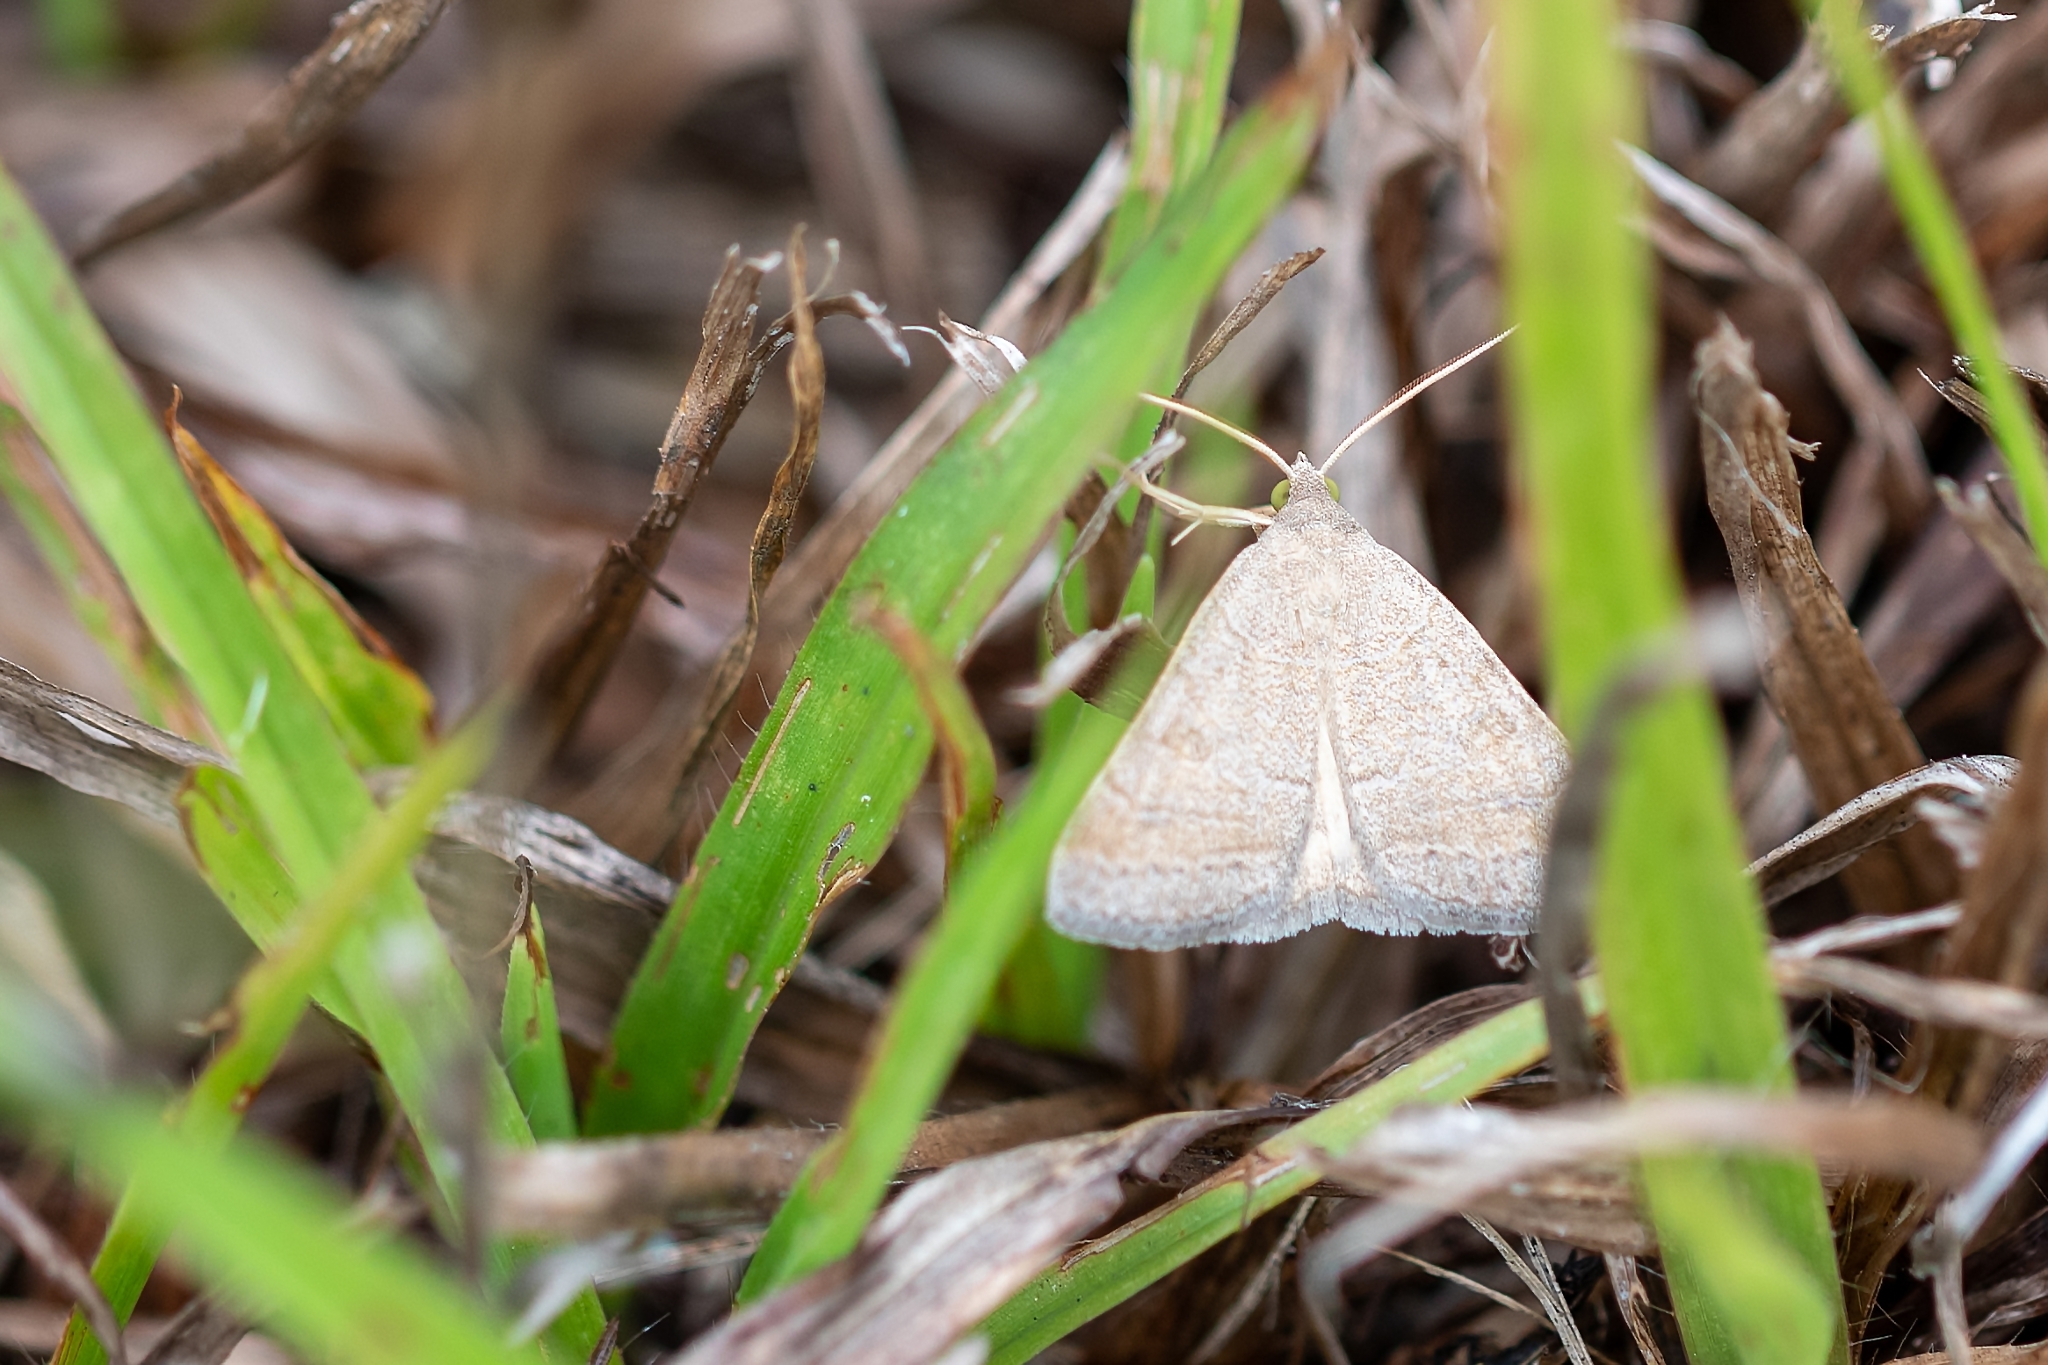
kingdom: Animalia
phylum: Arthropoda
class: Insecta
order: Lepidoptera
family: Erebidae
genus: Caenurgia
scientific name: Caenurgia chloropha
